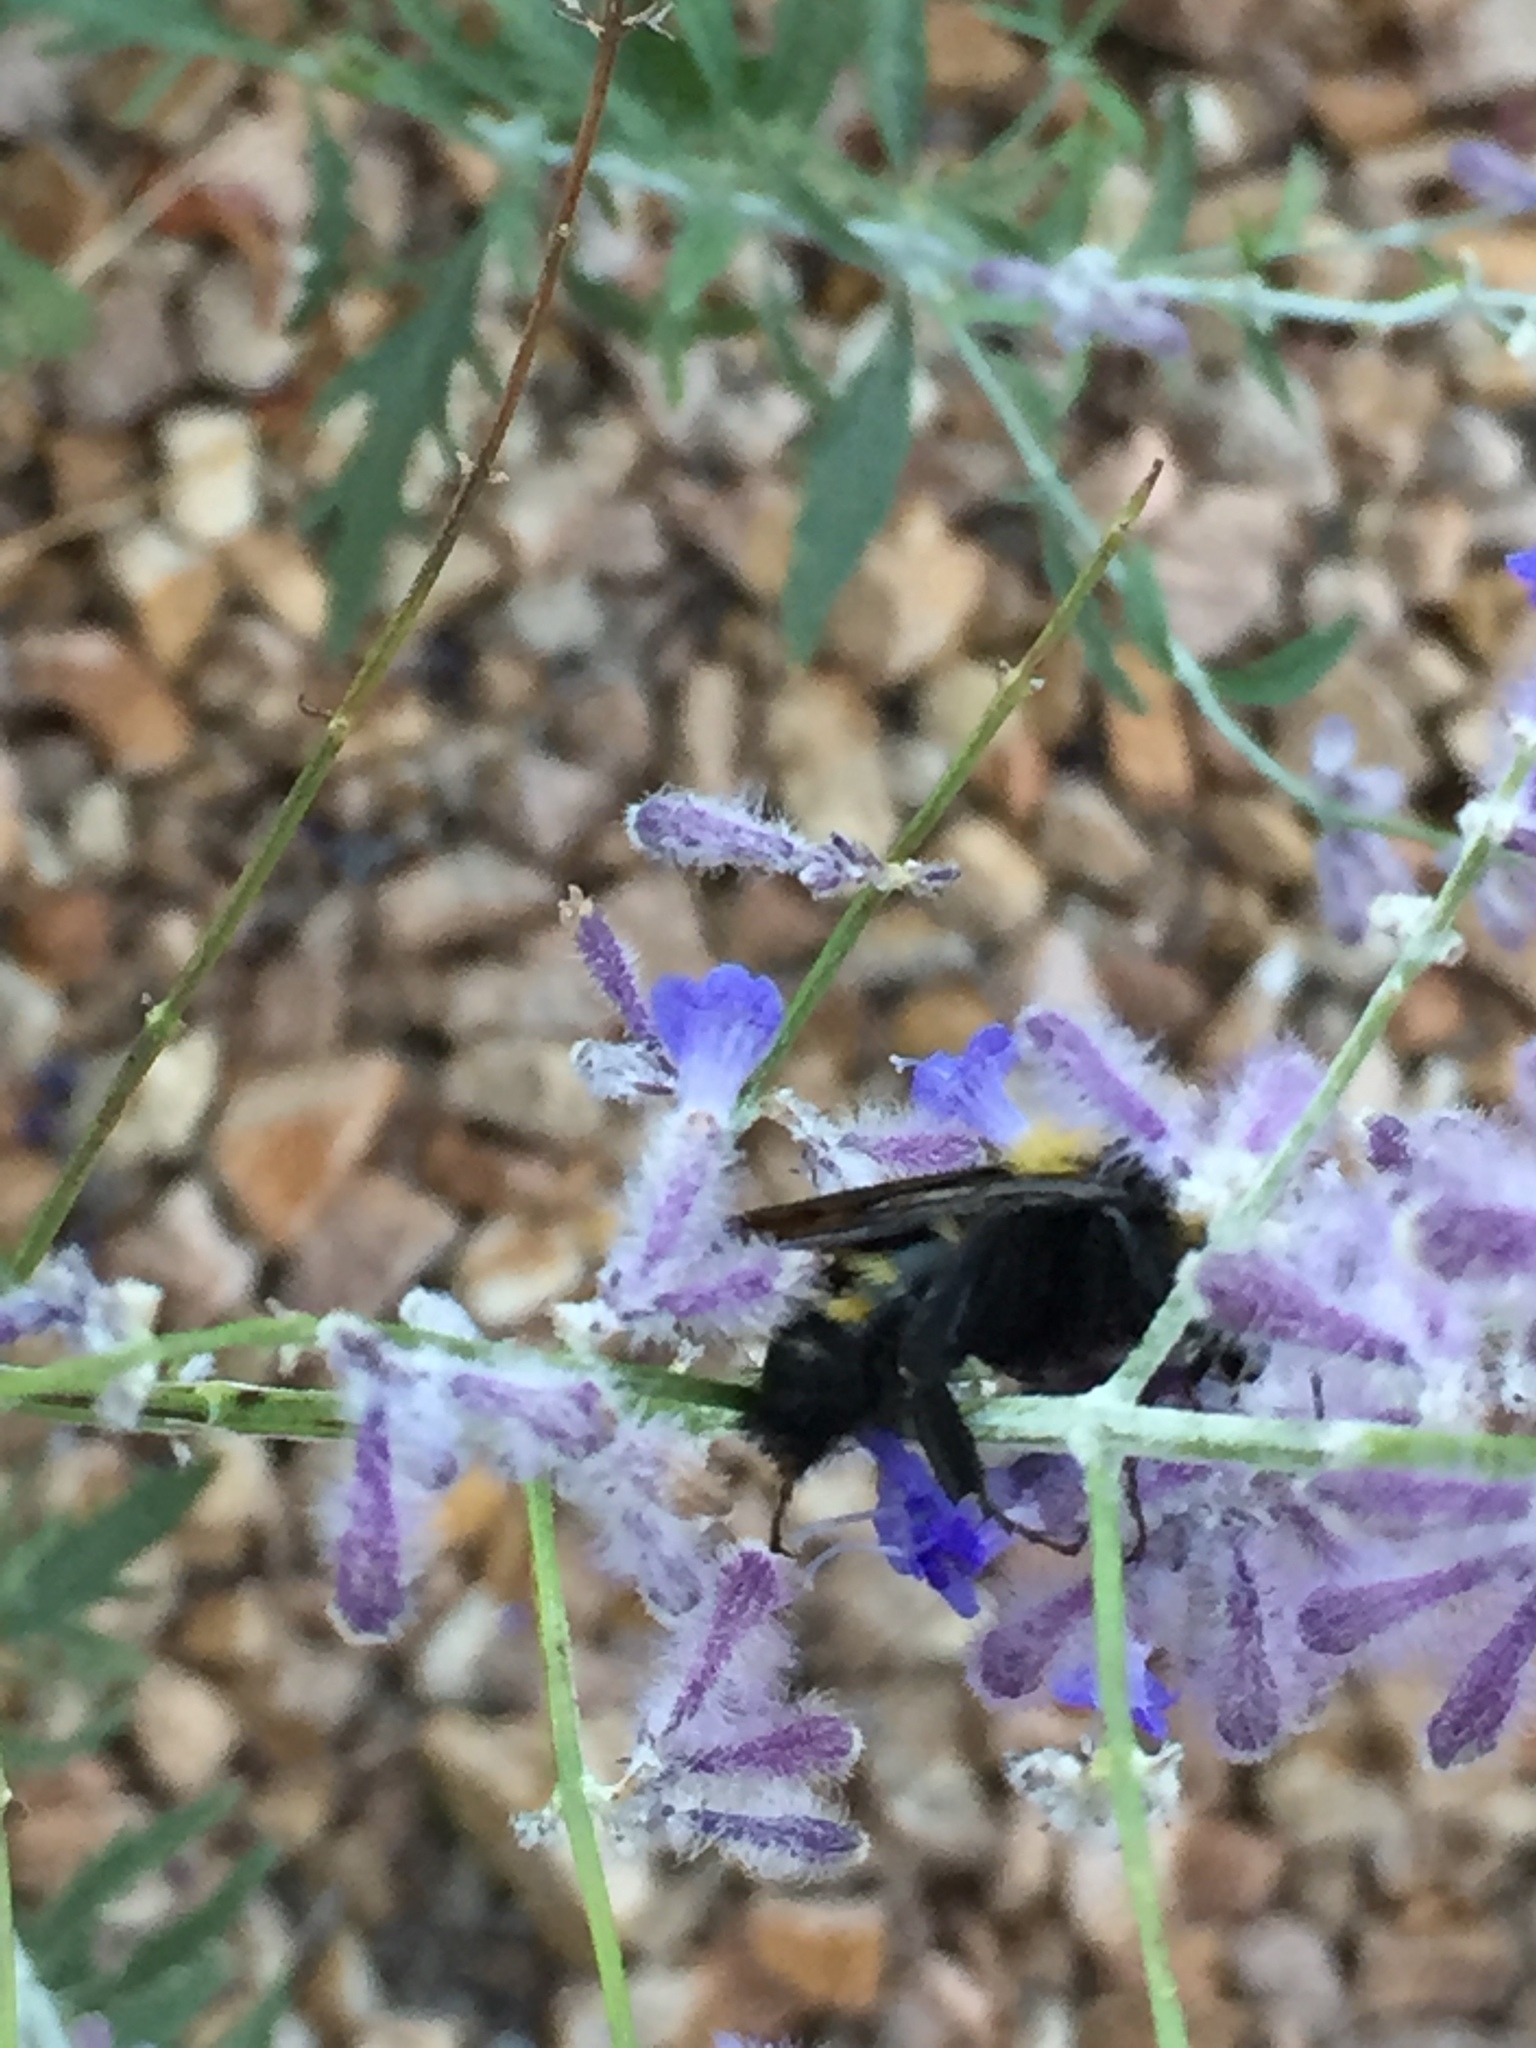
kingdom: Animalia
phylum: Arthropoda
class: Insecta
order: Hymenoptera
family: Apidae
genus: Bombus
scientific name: Bombus sonorus
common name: Sonoran bumble bee
